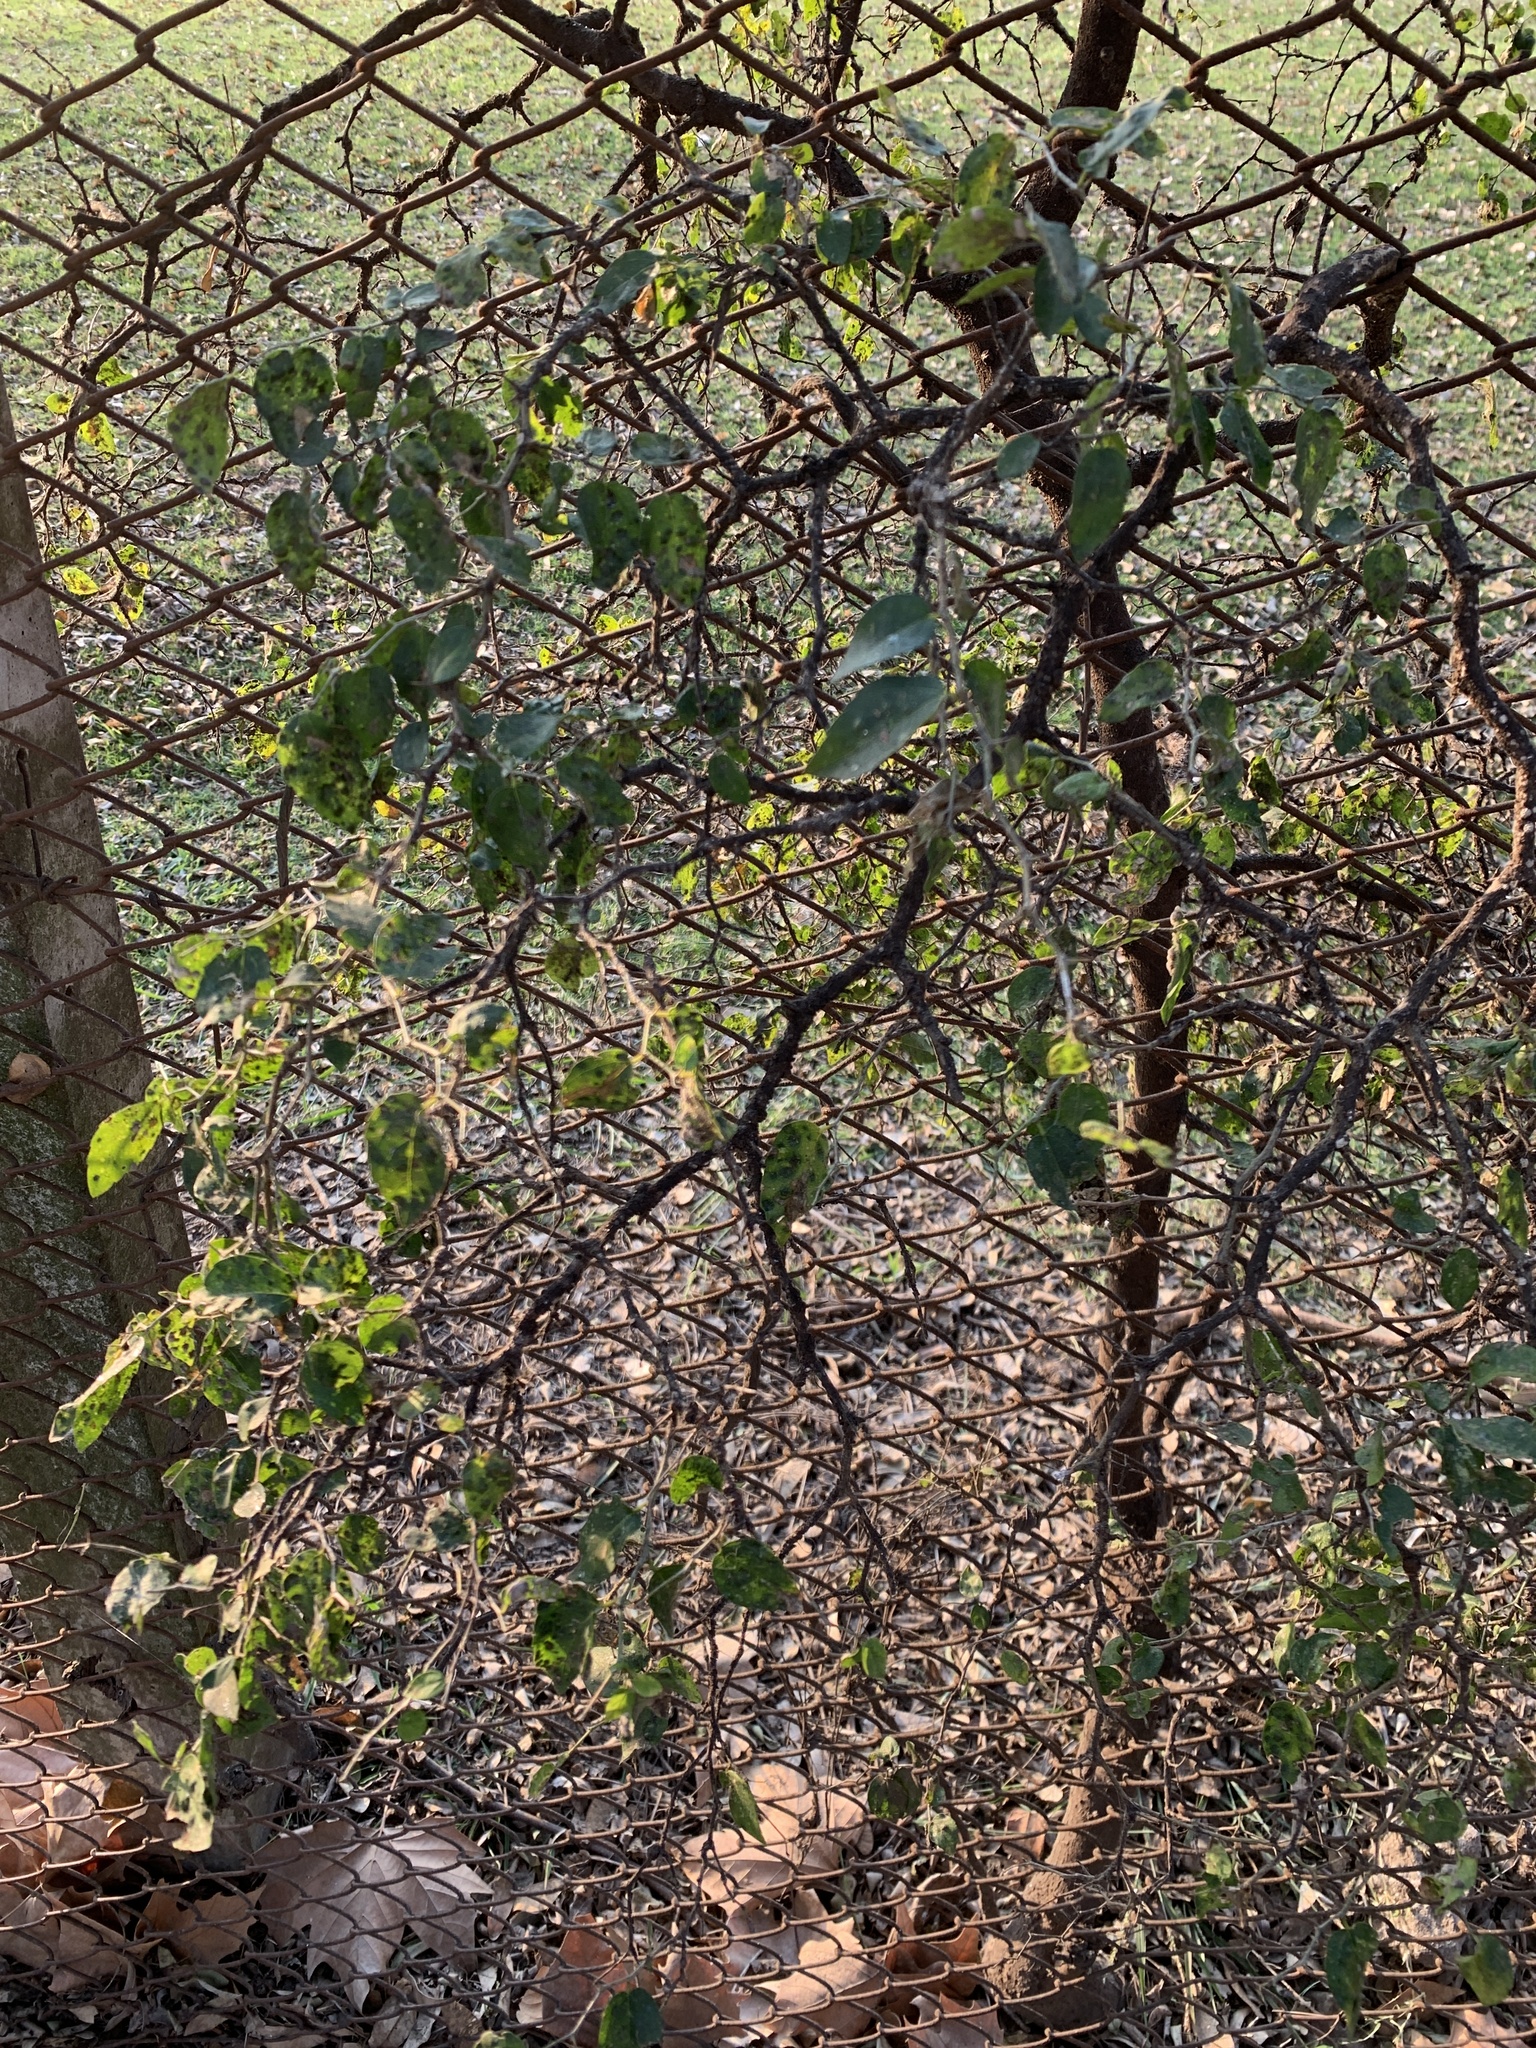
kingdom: Plantae
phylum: Tracheophyta
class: Magnoliopsida
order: Rosales
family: Cannabaceae
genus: Celtis
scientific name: Celtis tala
